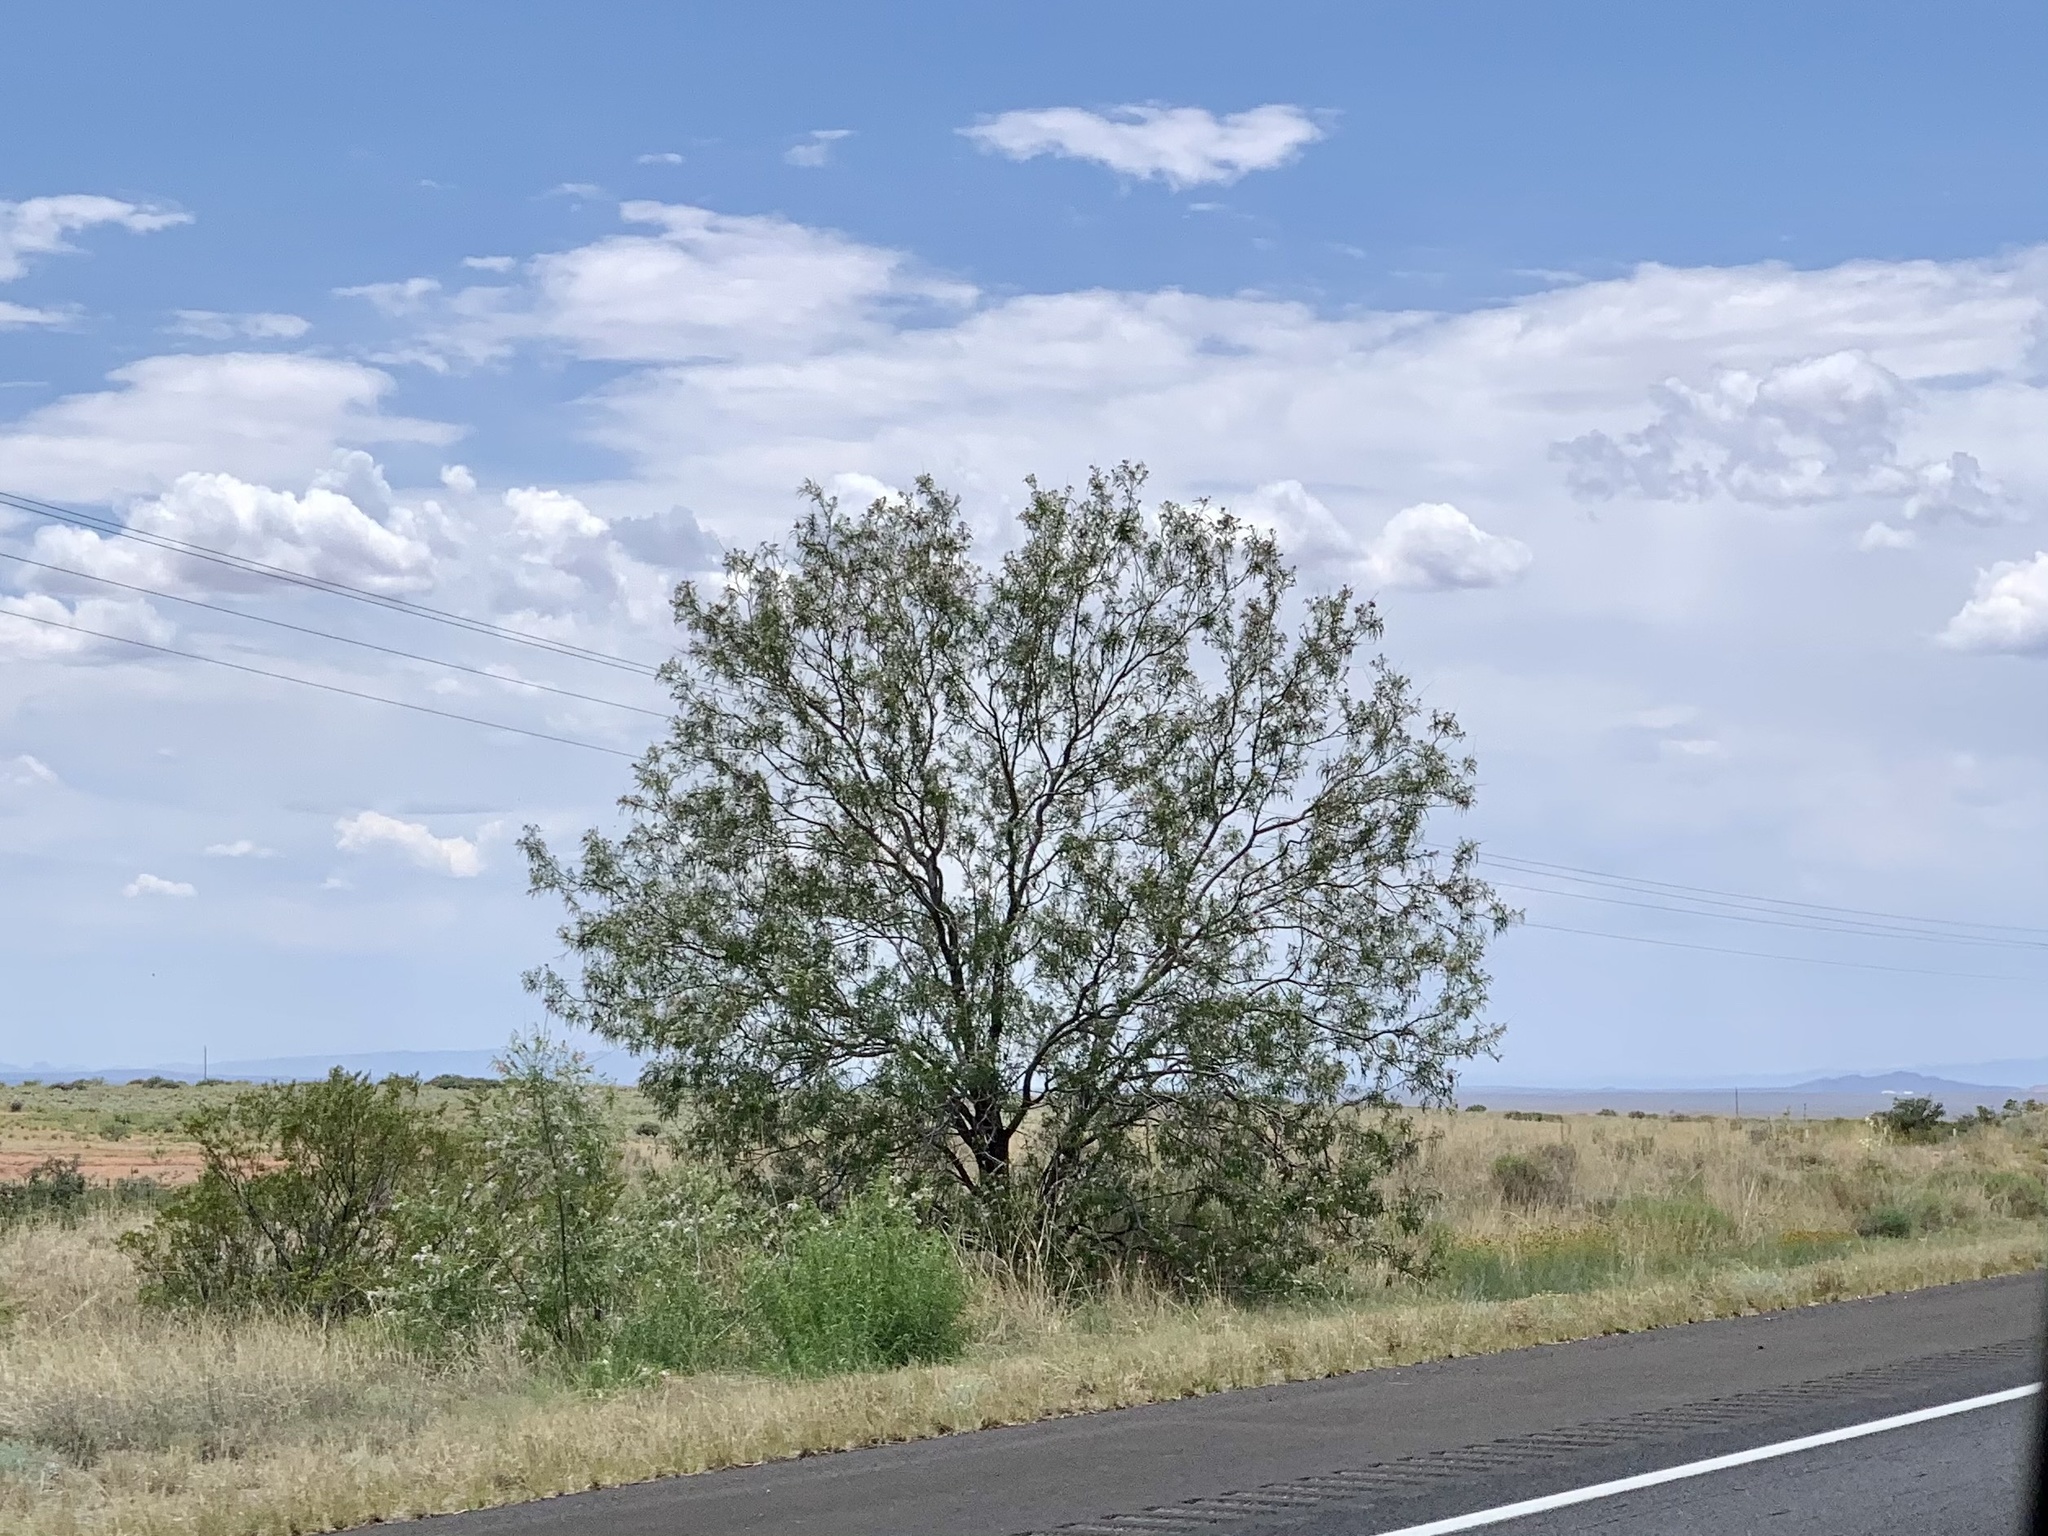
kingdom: Plantae
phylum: Tracheophyta
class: Magnoliopsida
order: Lamiales
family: Bignoniaceae
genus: Chilopsis
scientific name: Chilopsis linearis
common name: Desert-willow
